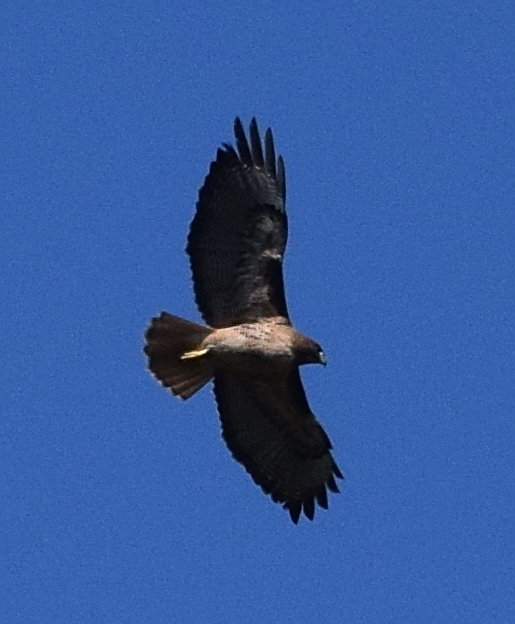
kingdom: Animalia
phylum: Chordata
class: Aves
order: Accipitriformes
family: Accipitridae
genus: Buteo
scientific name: Buteo jamaicensis
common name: Red-tailed hawk
